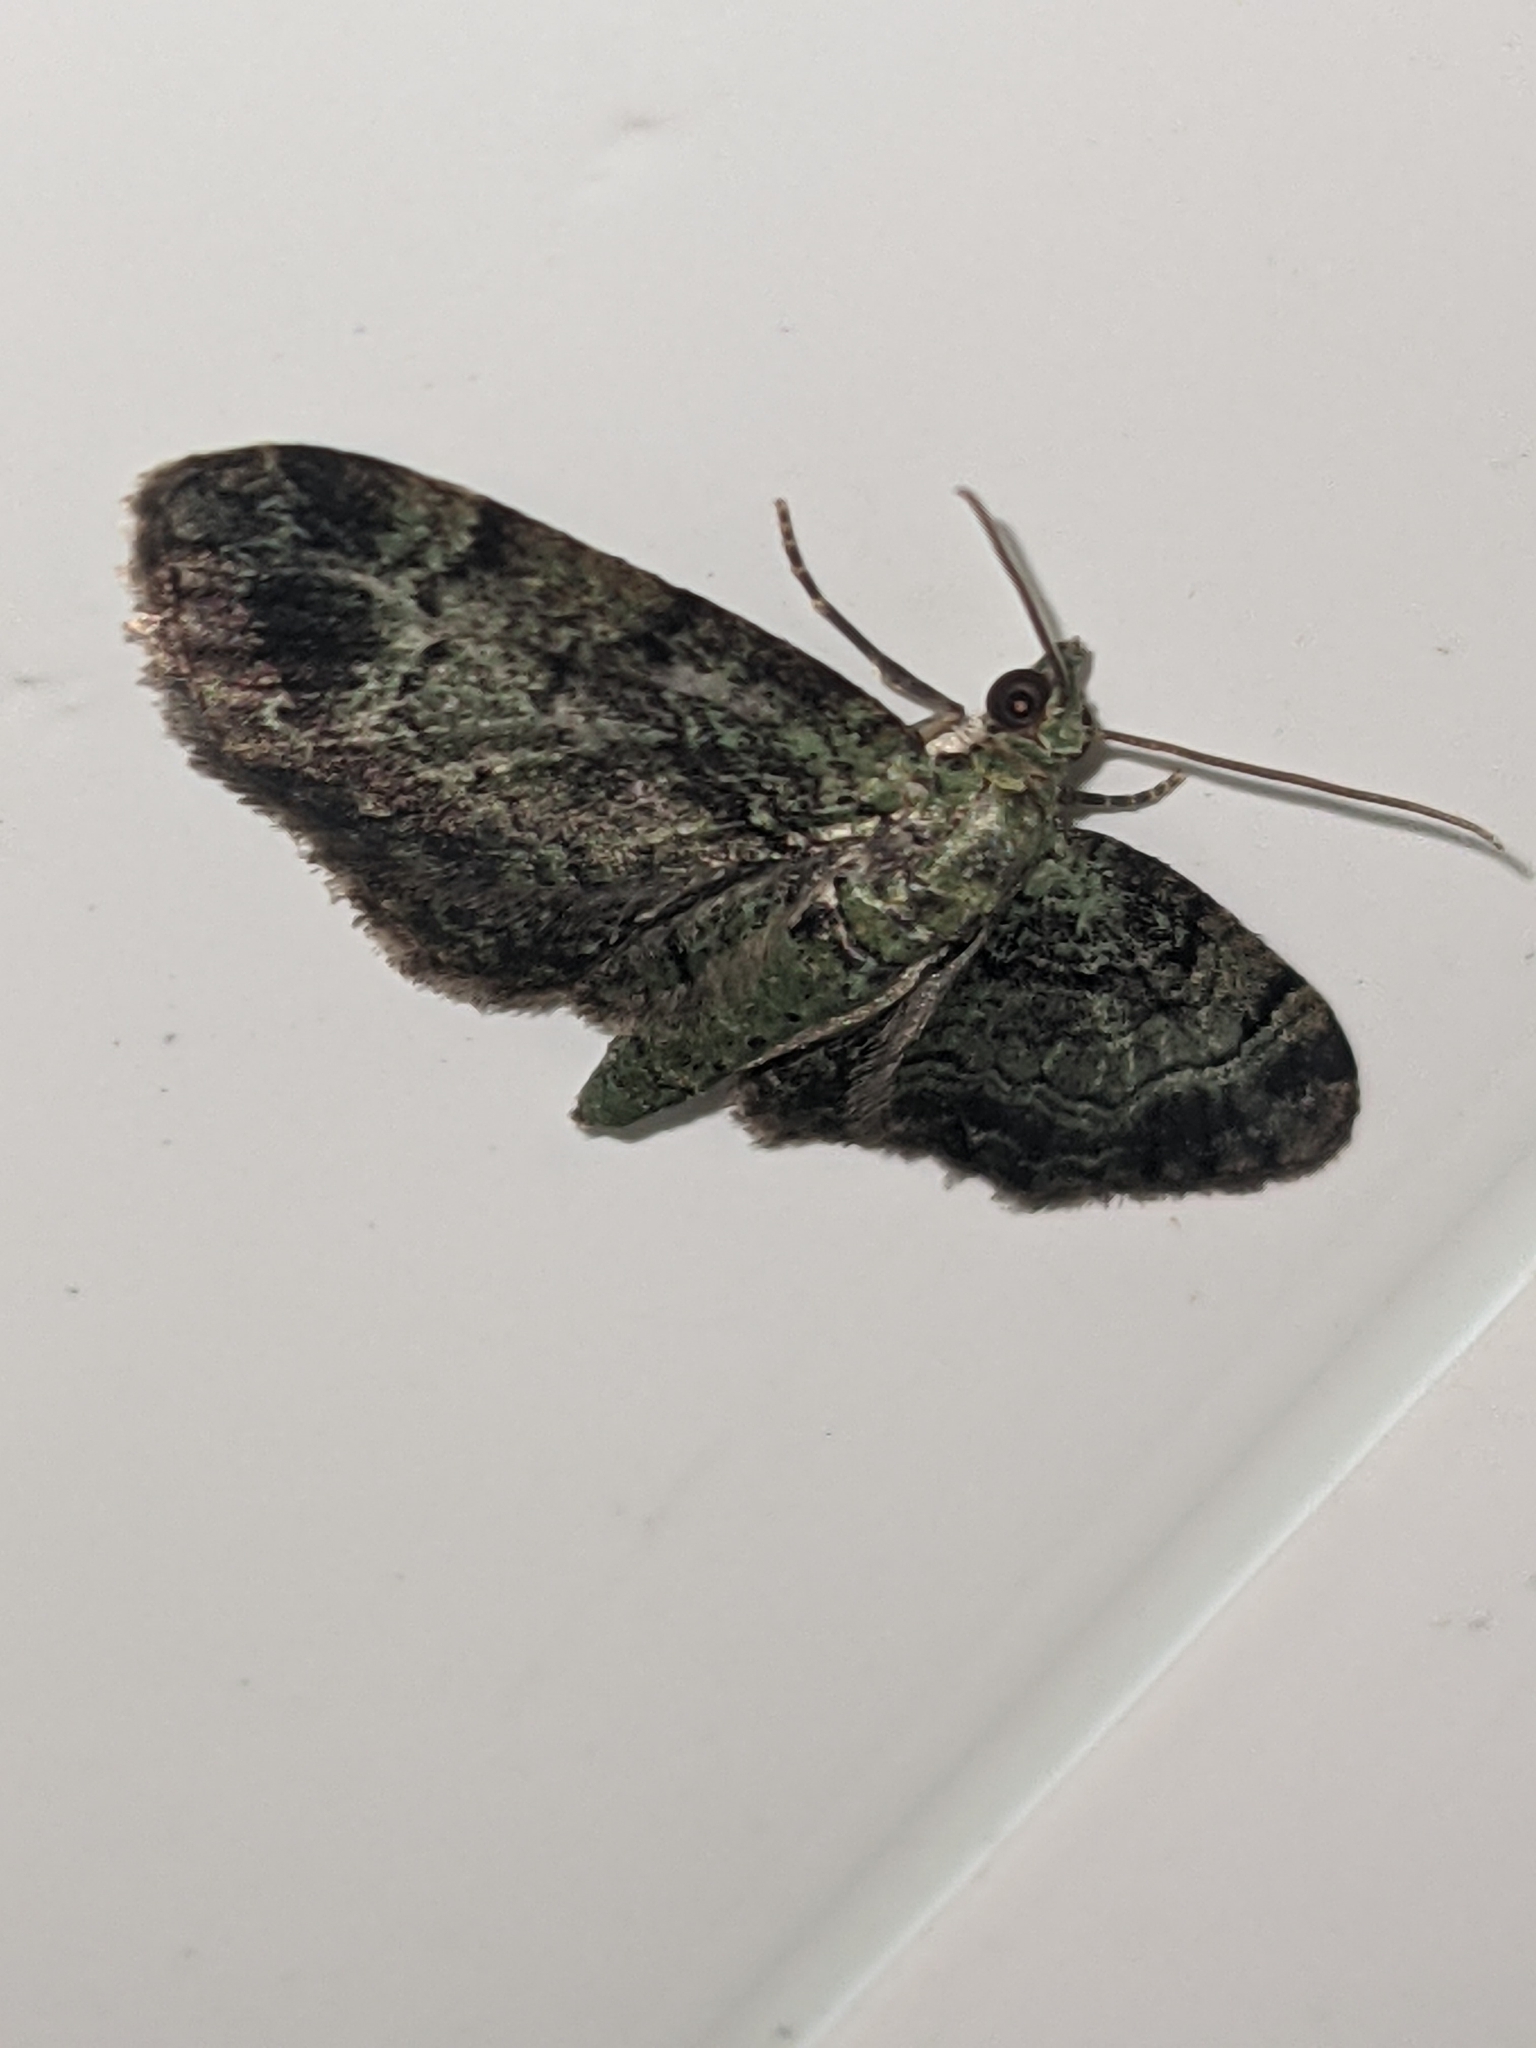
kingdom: Animalia
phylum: Arthropoda
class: Insecta
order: Lepidoptera
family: Geometridae
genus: Pasiphila
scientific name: Pasiphila rectangulata
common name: Green pug
